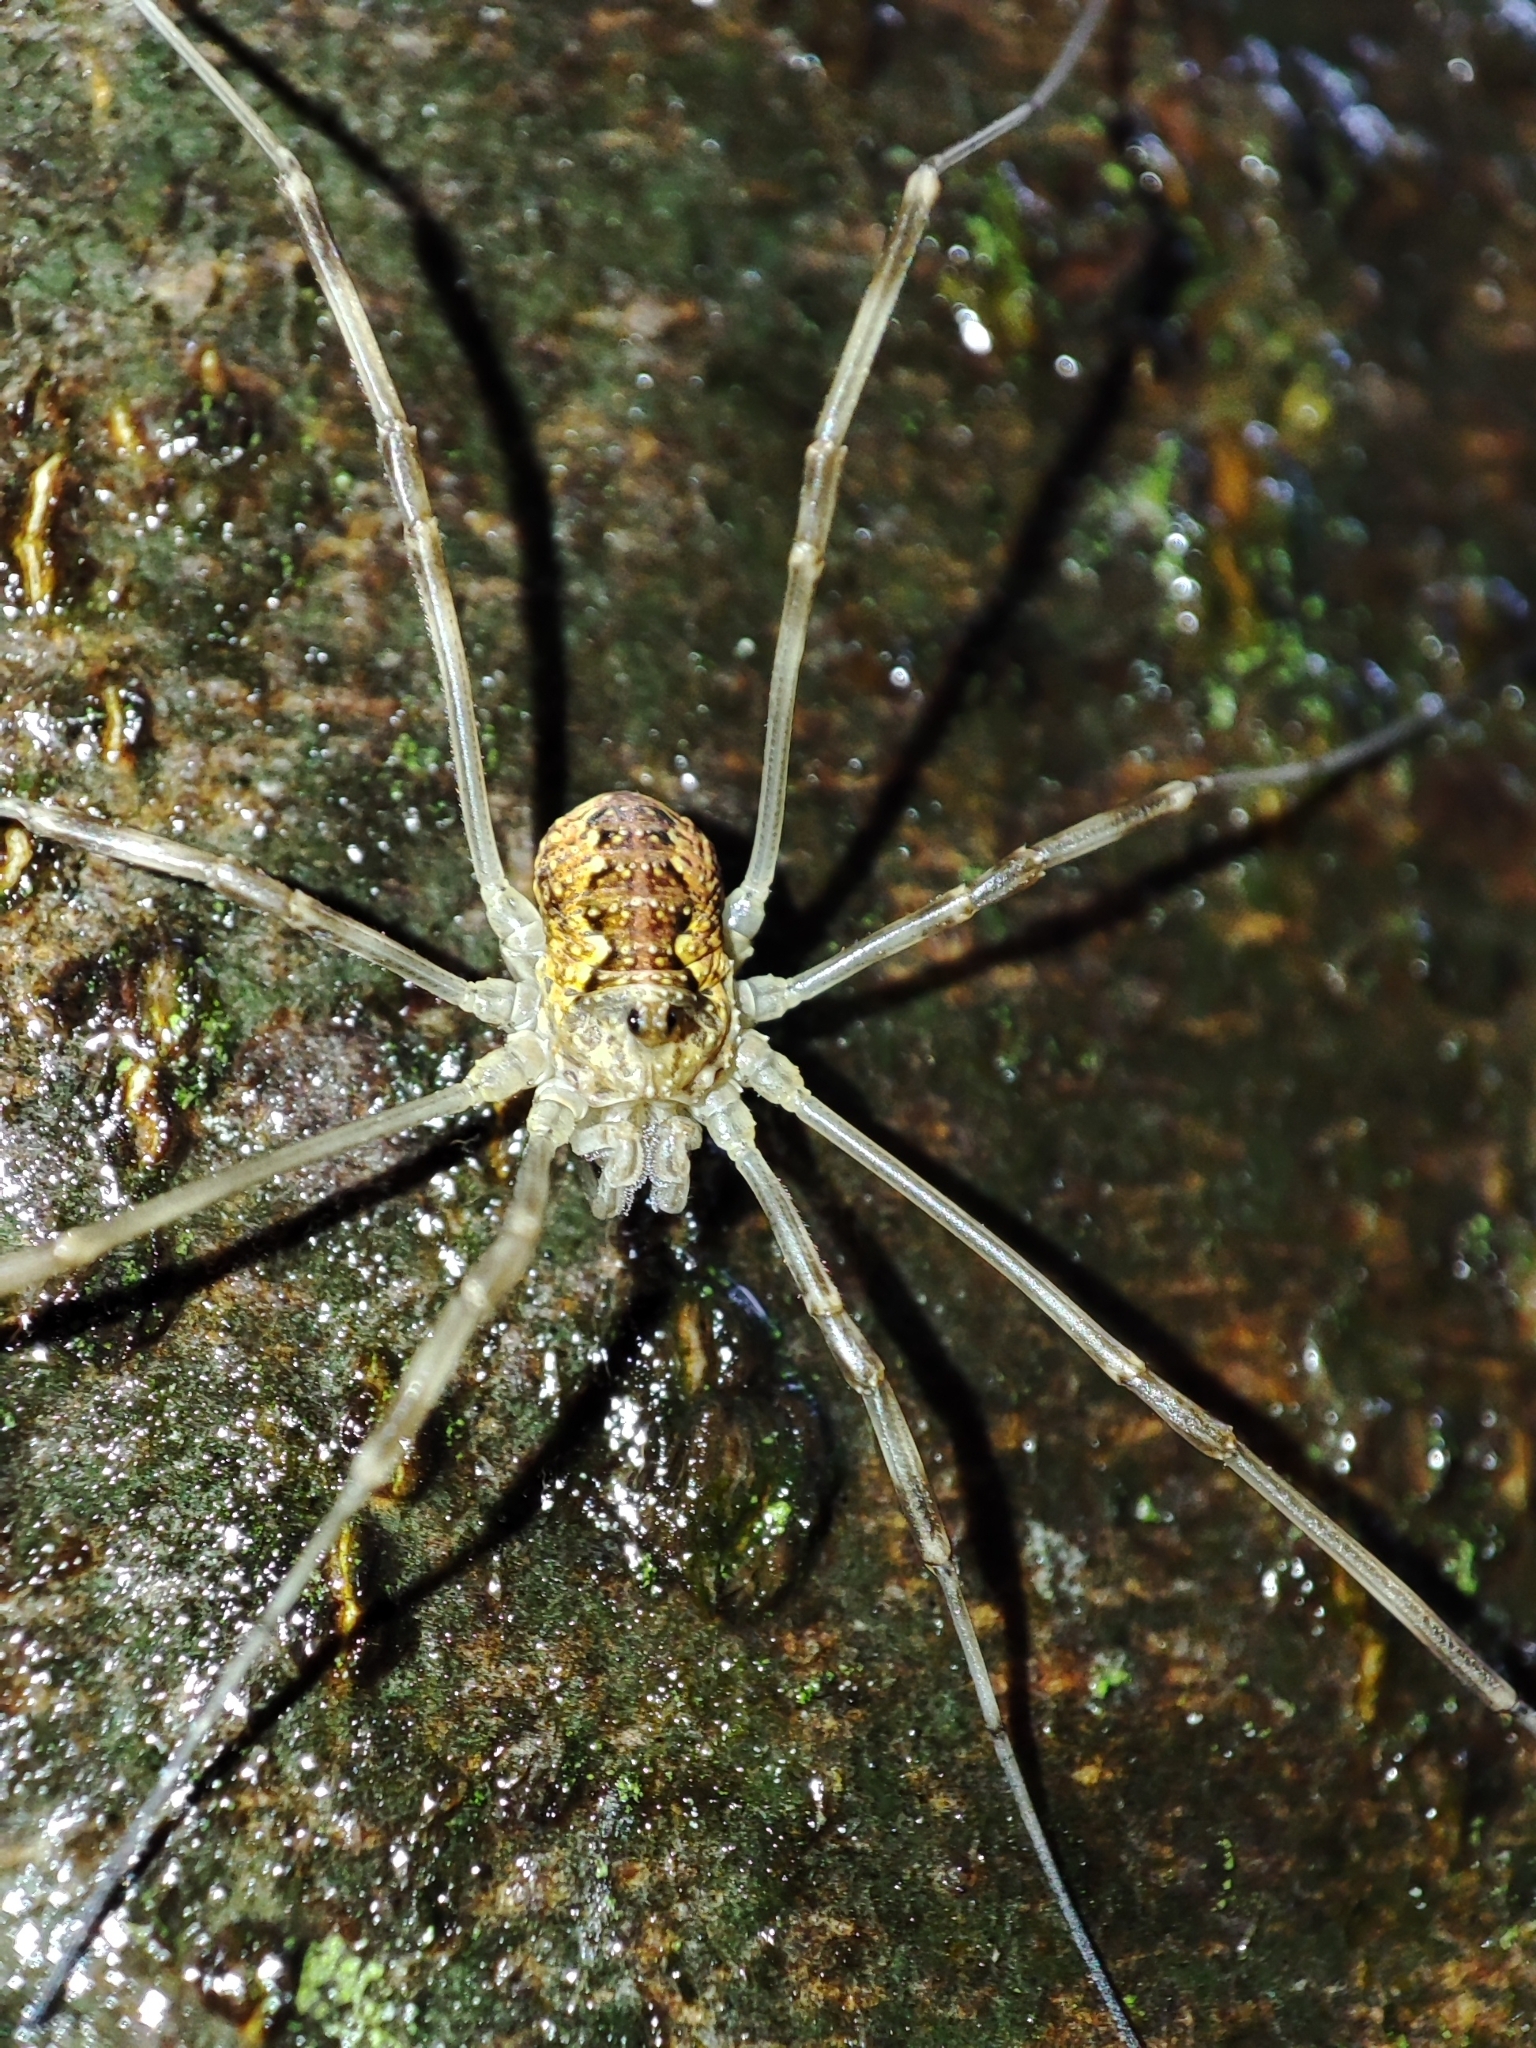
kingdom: Animalia
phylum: Arthropoda
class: Arachnida
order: Opiliones
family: Phalangiidae
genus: Mitopus
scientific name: Mitopus morio
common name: Saddleback harvestman
